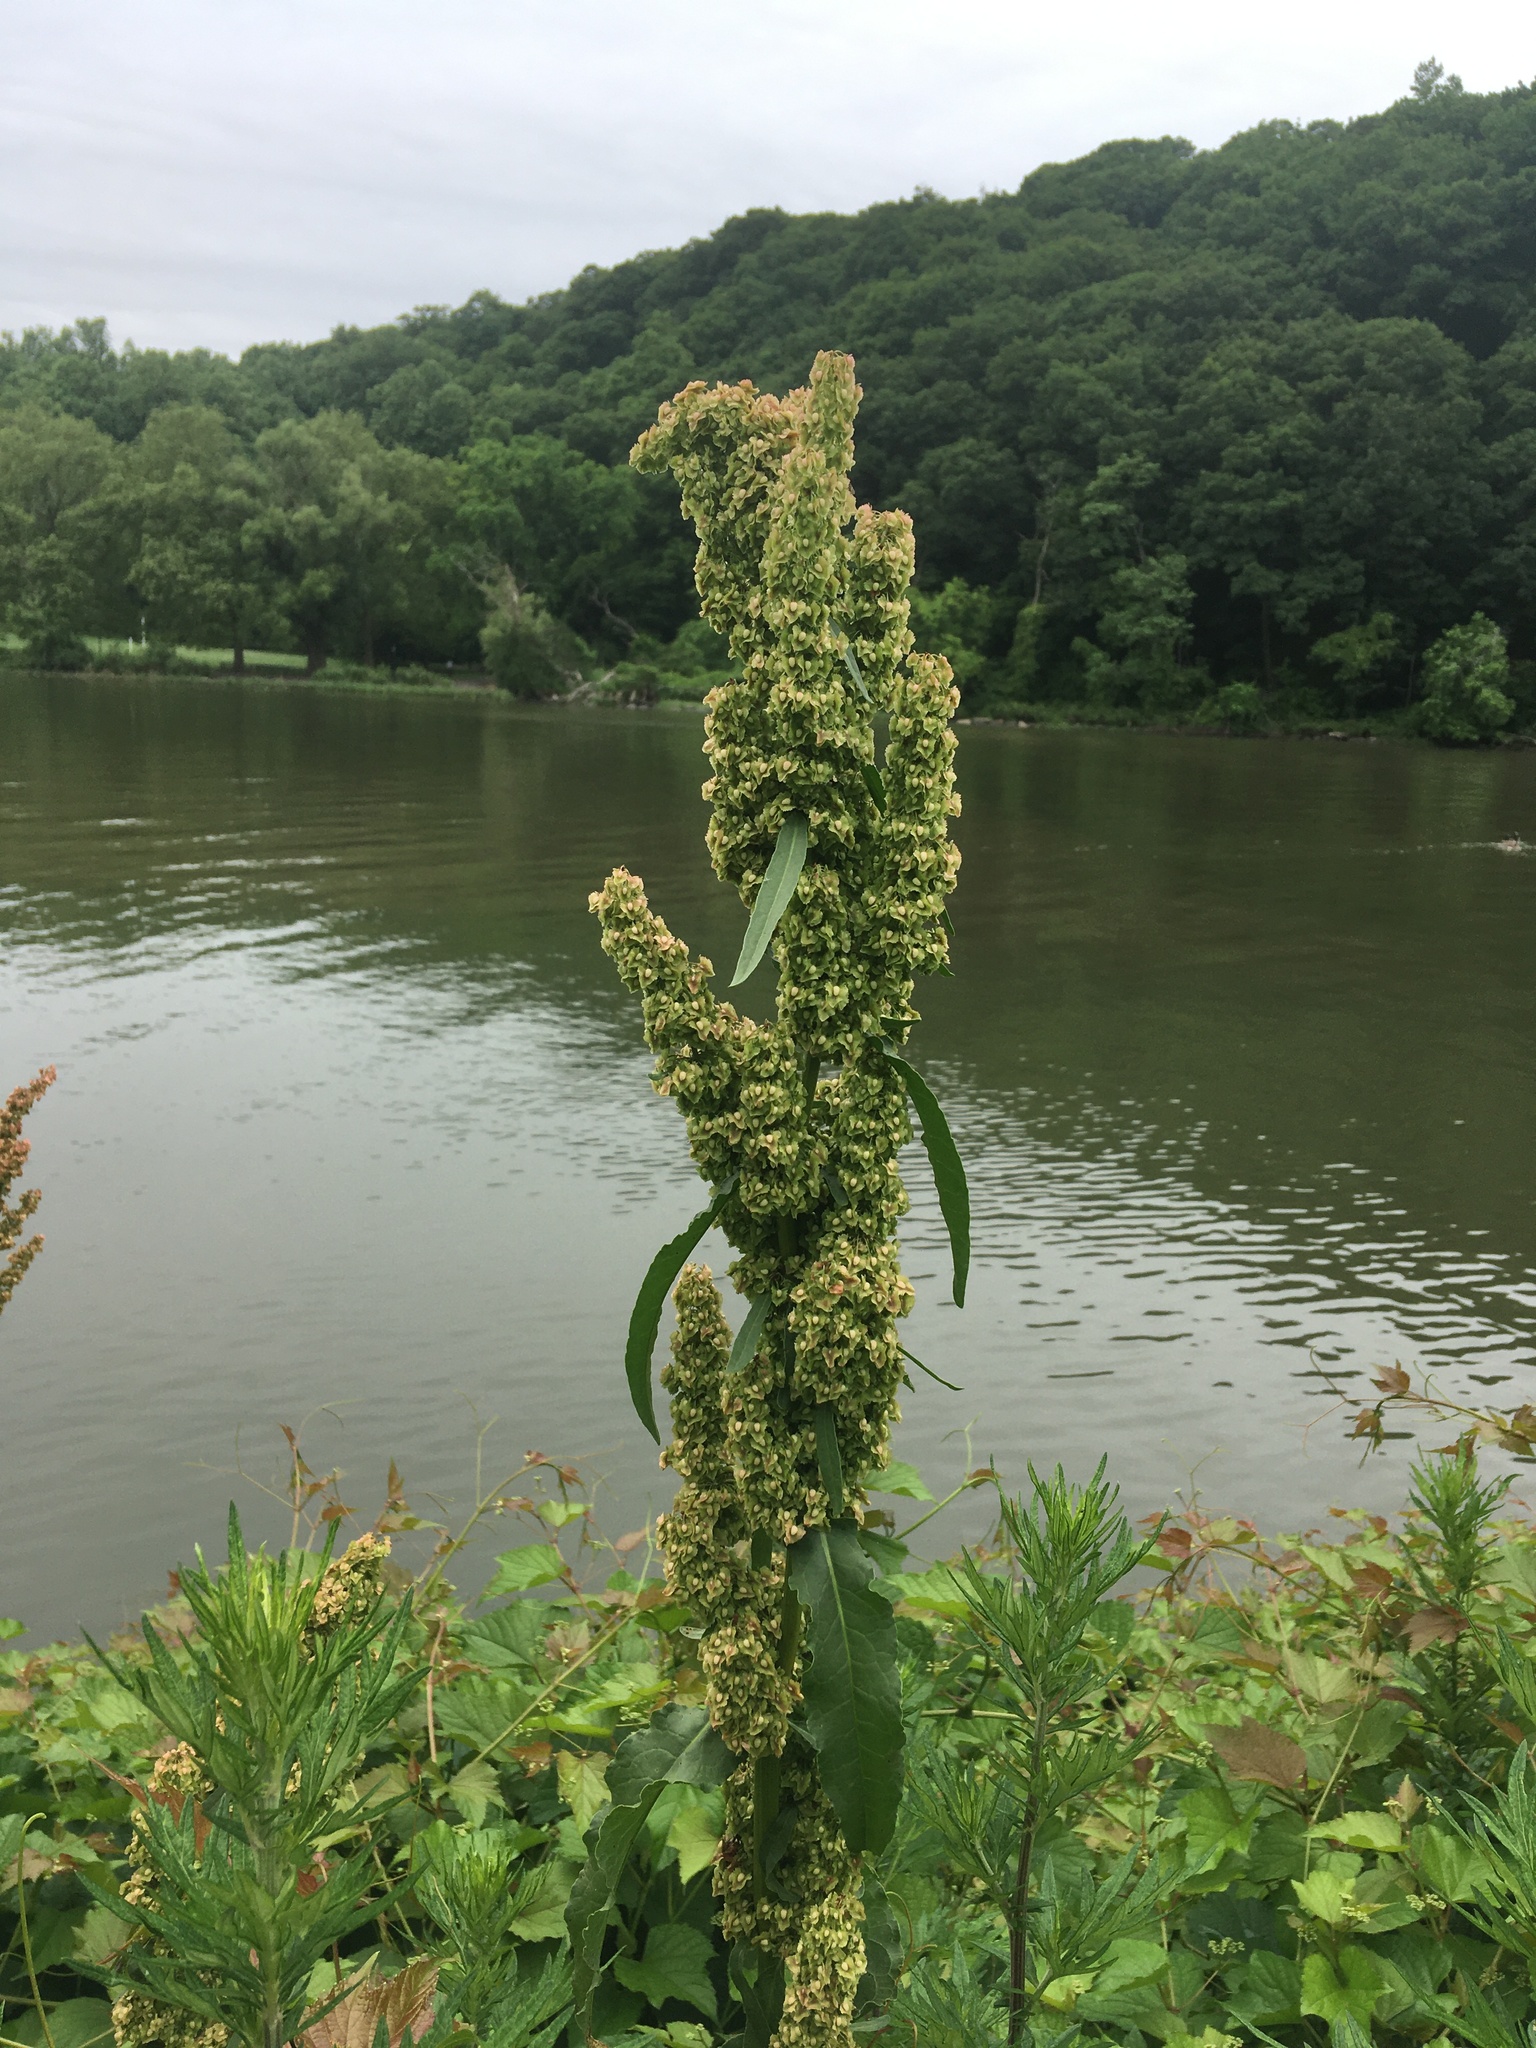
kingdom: Plantae
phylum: Tracheophyta
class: Magnoliopsida
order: Caryophyllales
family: Polygonaceae
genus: Rumex
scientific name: Rumex cristatus
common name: Greek dock
